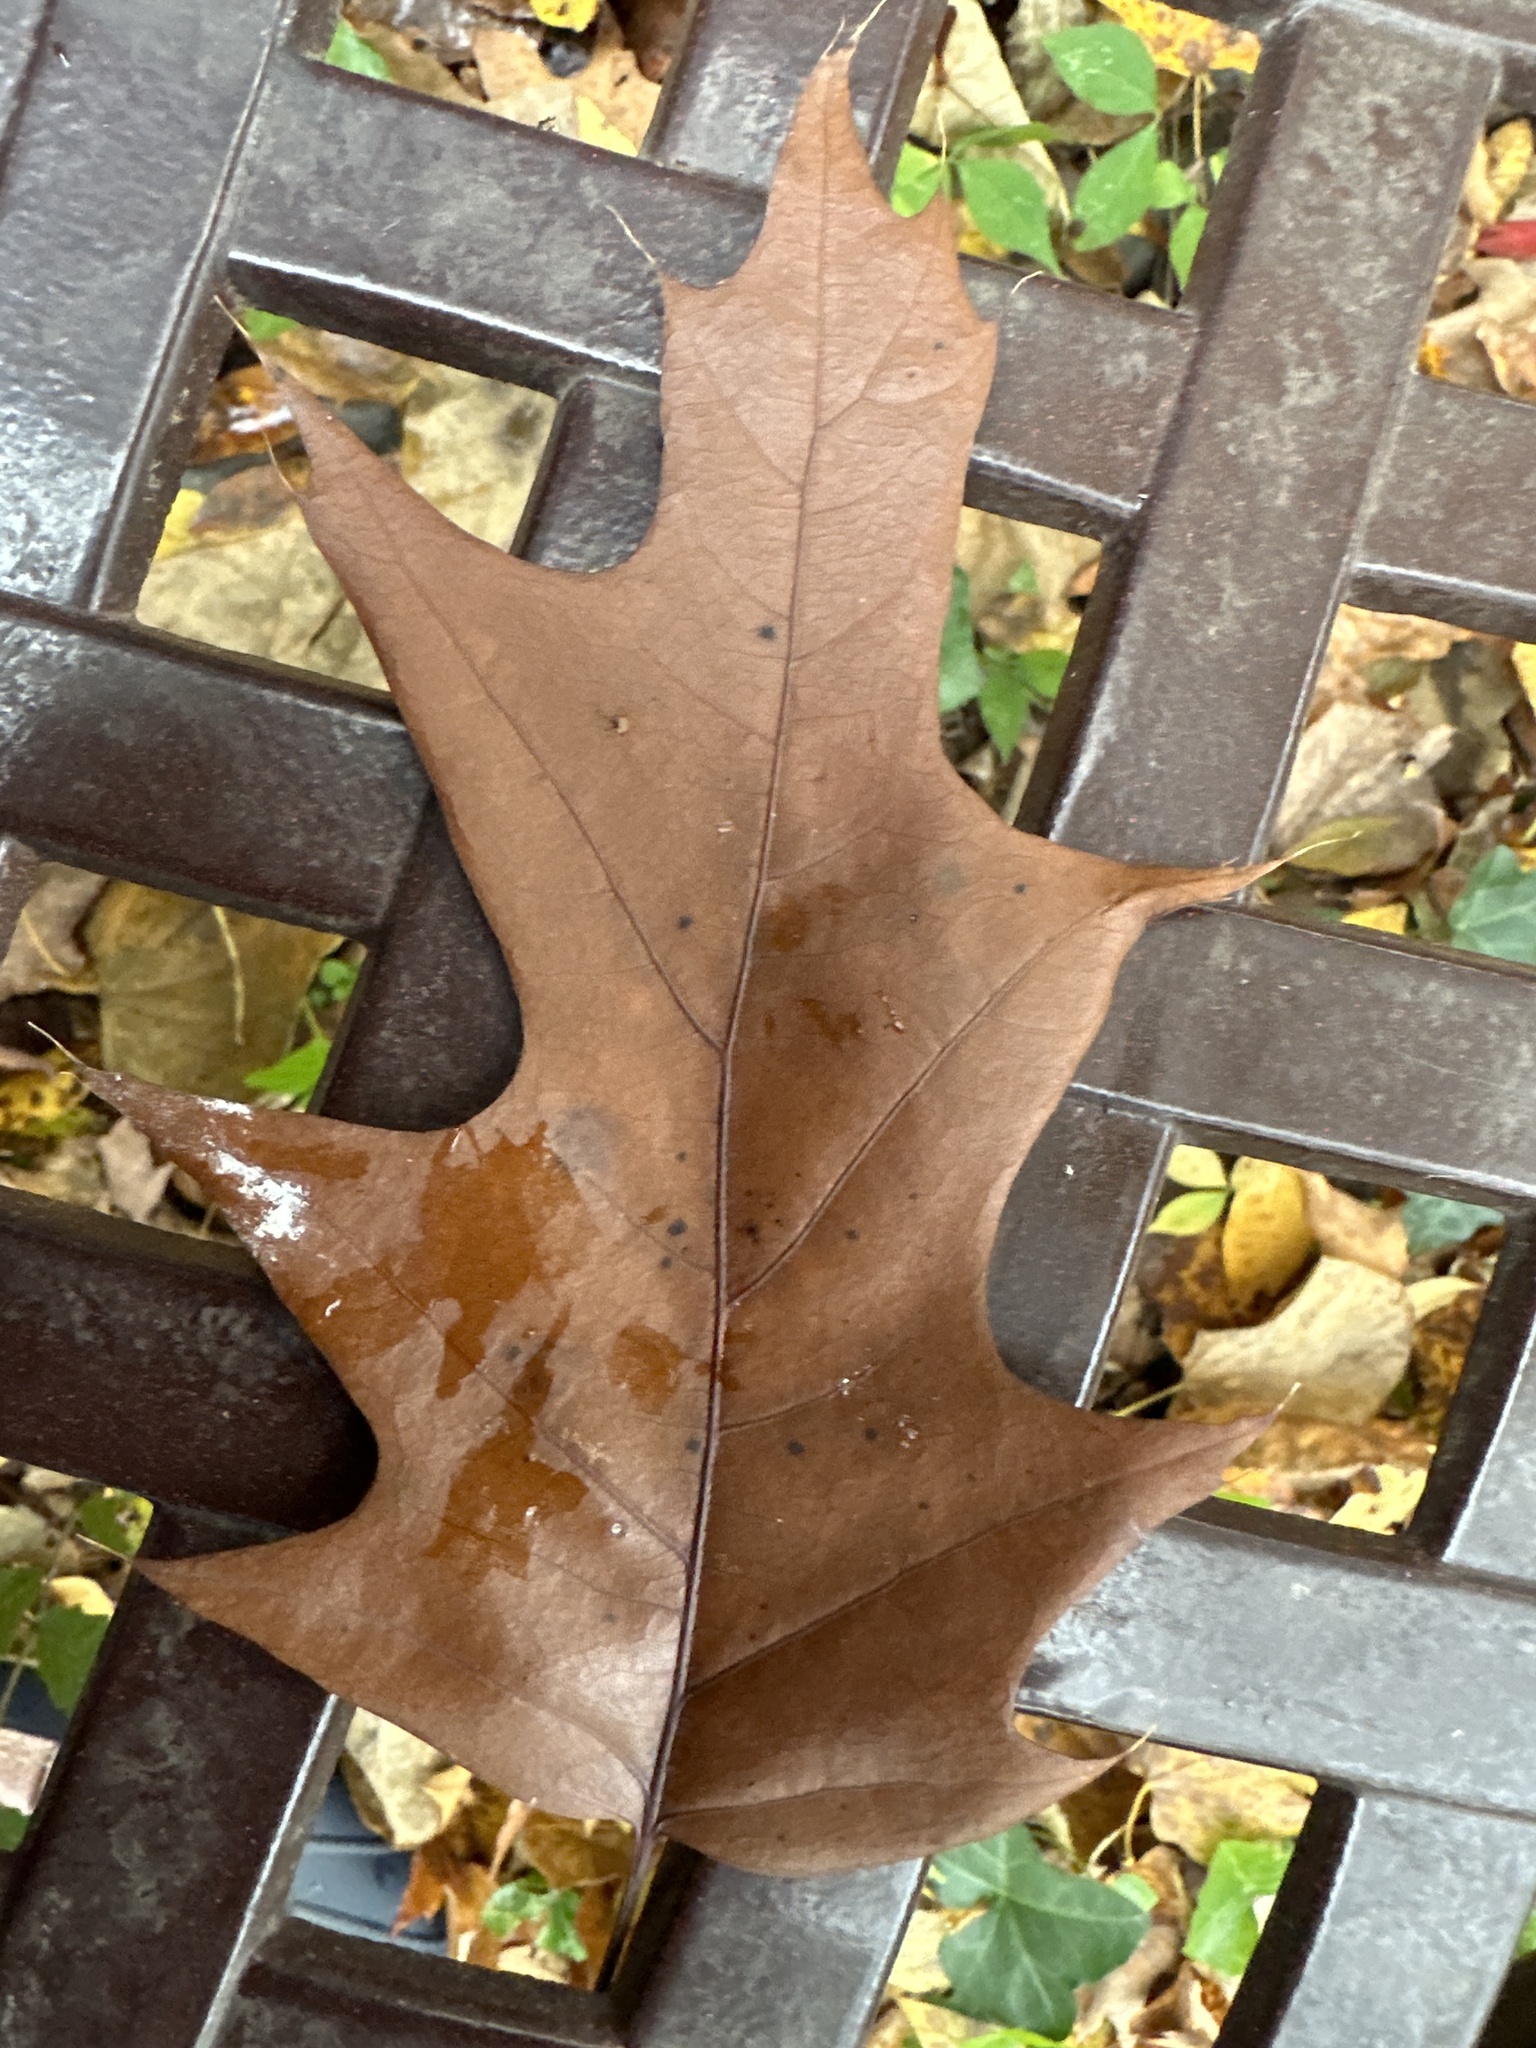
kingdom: Plantae
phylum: Tracheophyta
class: Magnoliopsida
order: Fagales
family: Fagaceae
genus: Quercus
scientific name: Quercus rubra
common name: Red oak
